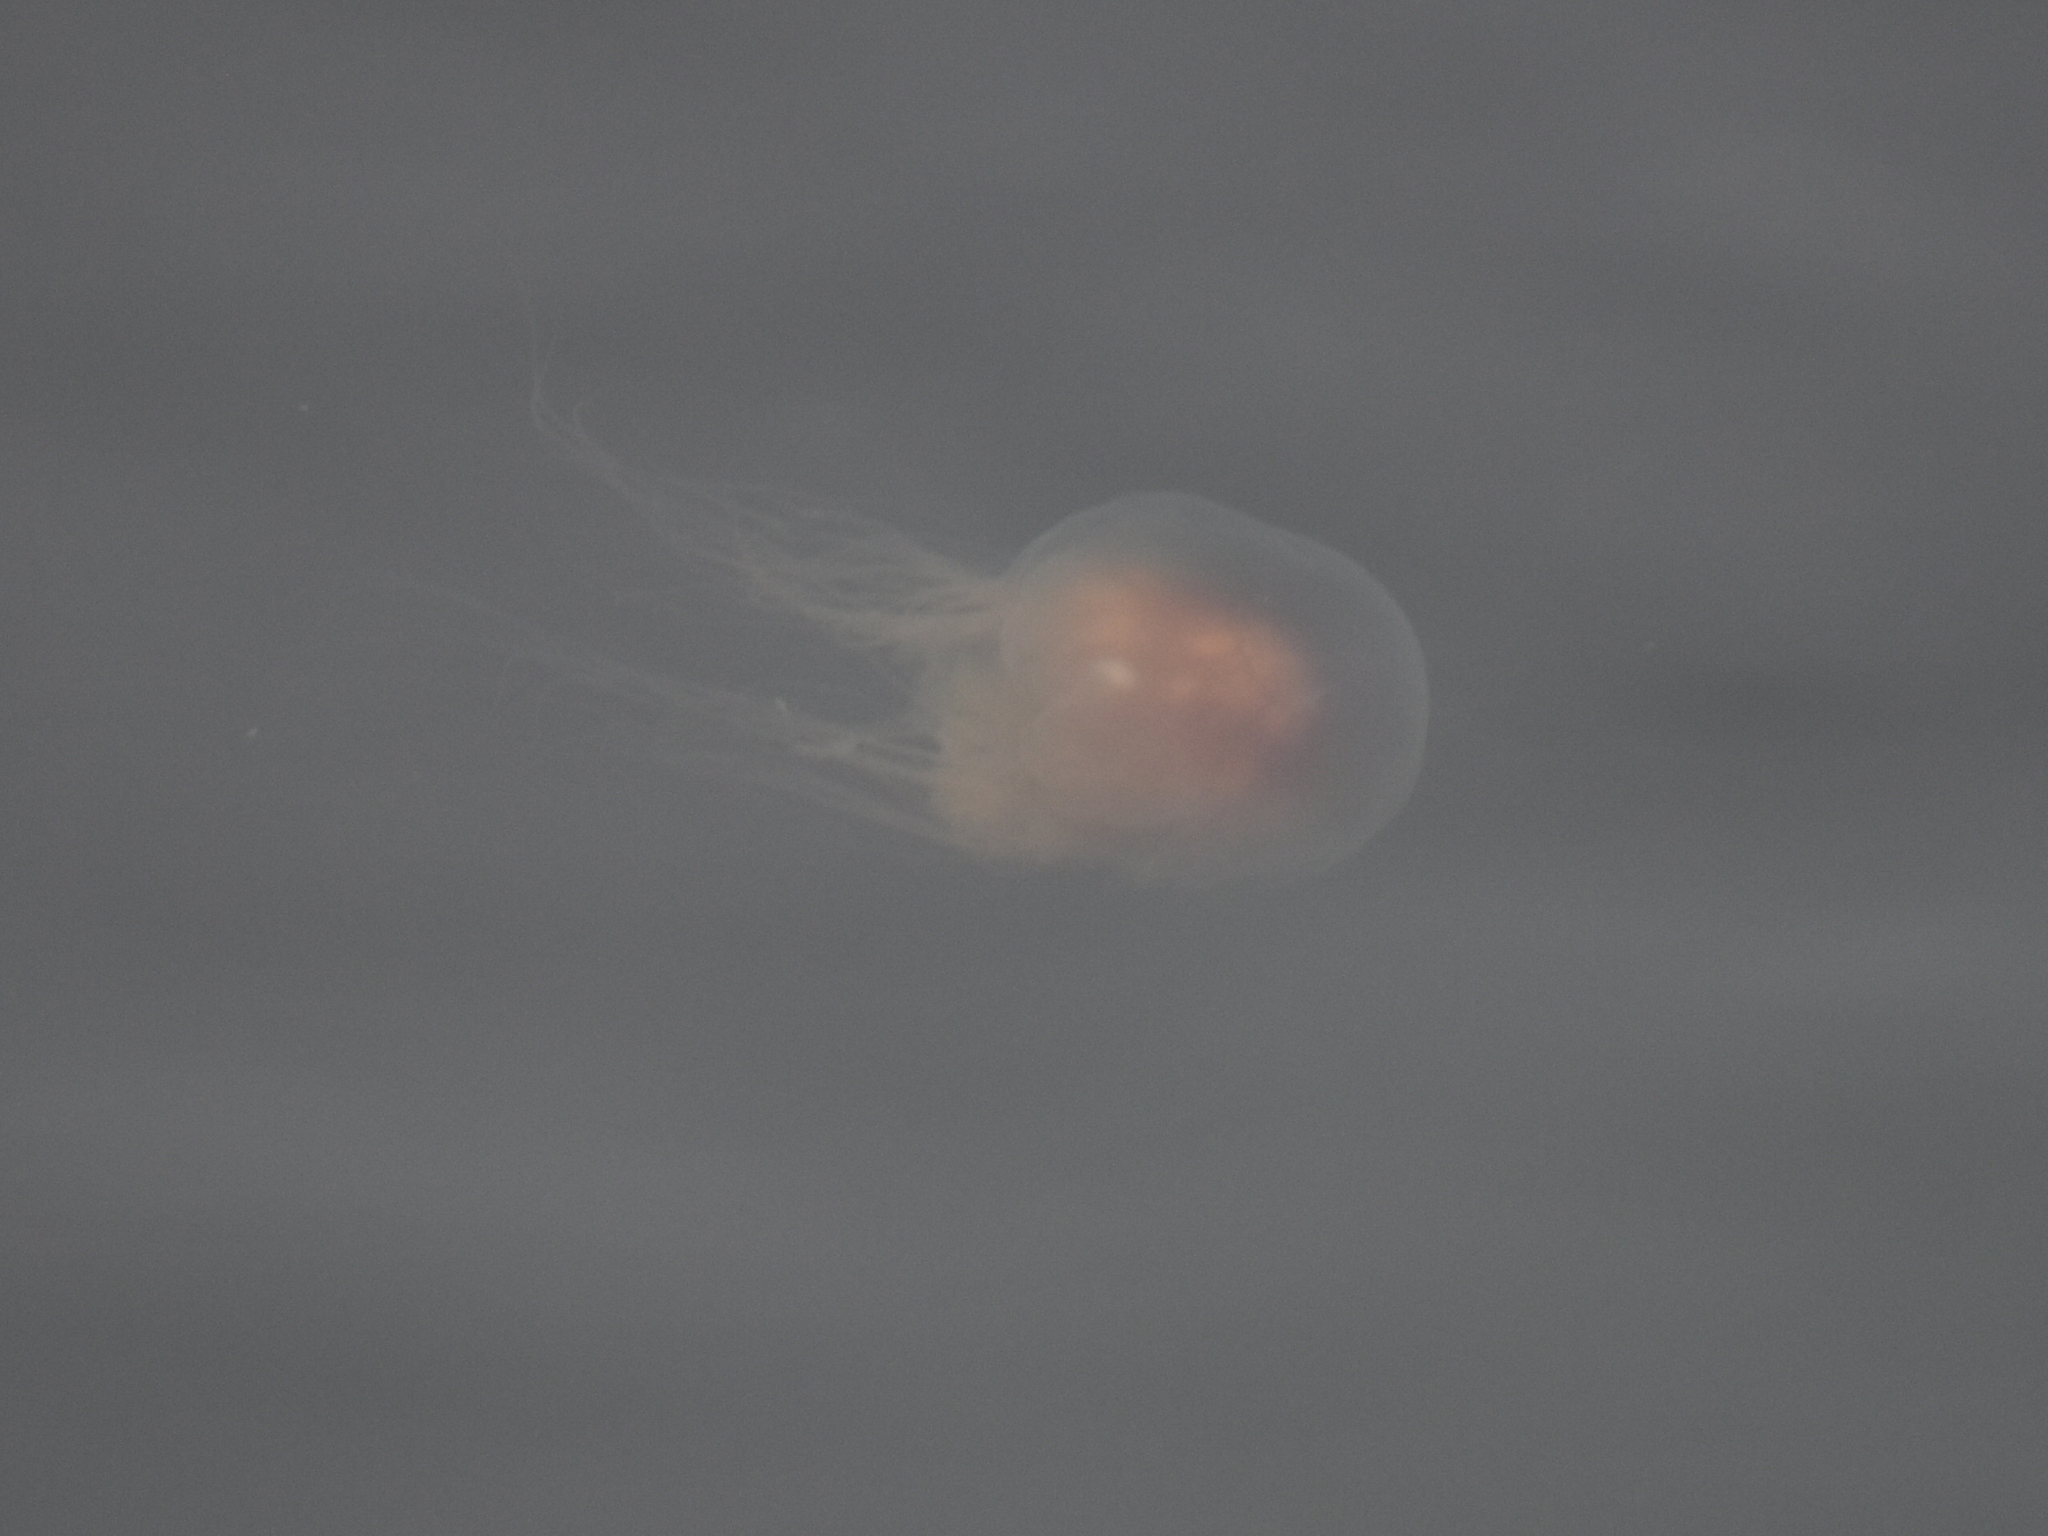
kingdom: Animalia
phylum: Cnidaria
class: Scyphozoa
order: Semaeostomeae
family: Cyaneidae
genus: Cyanea
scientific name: Cyanea fulva
